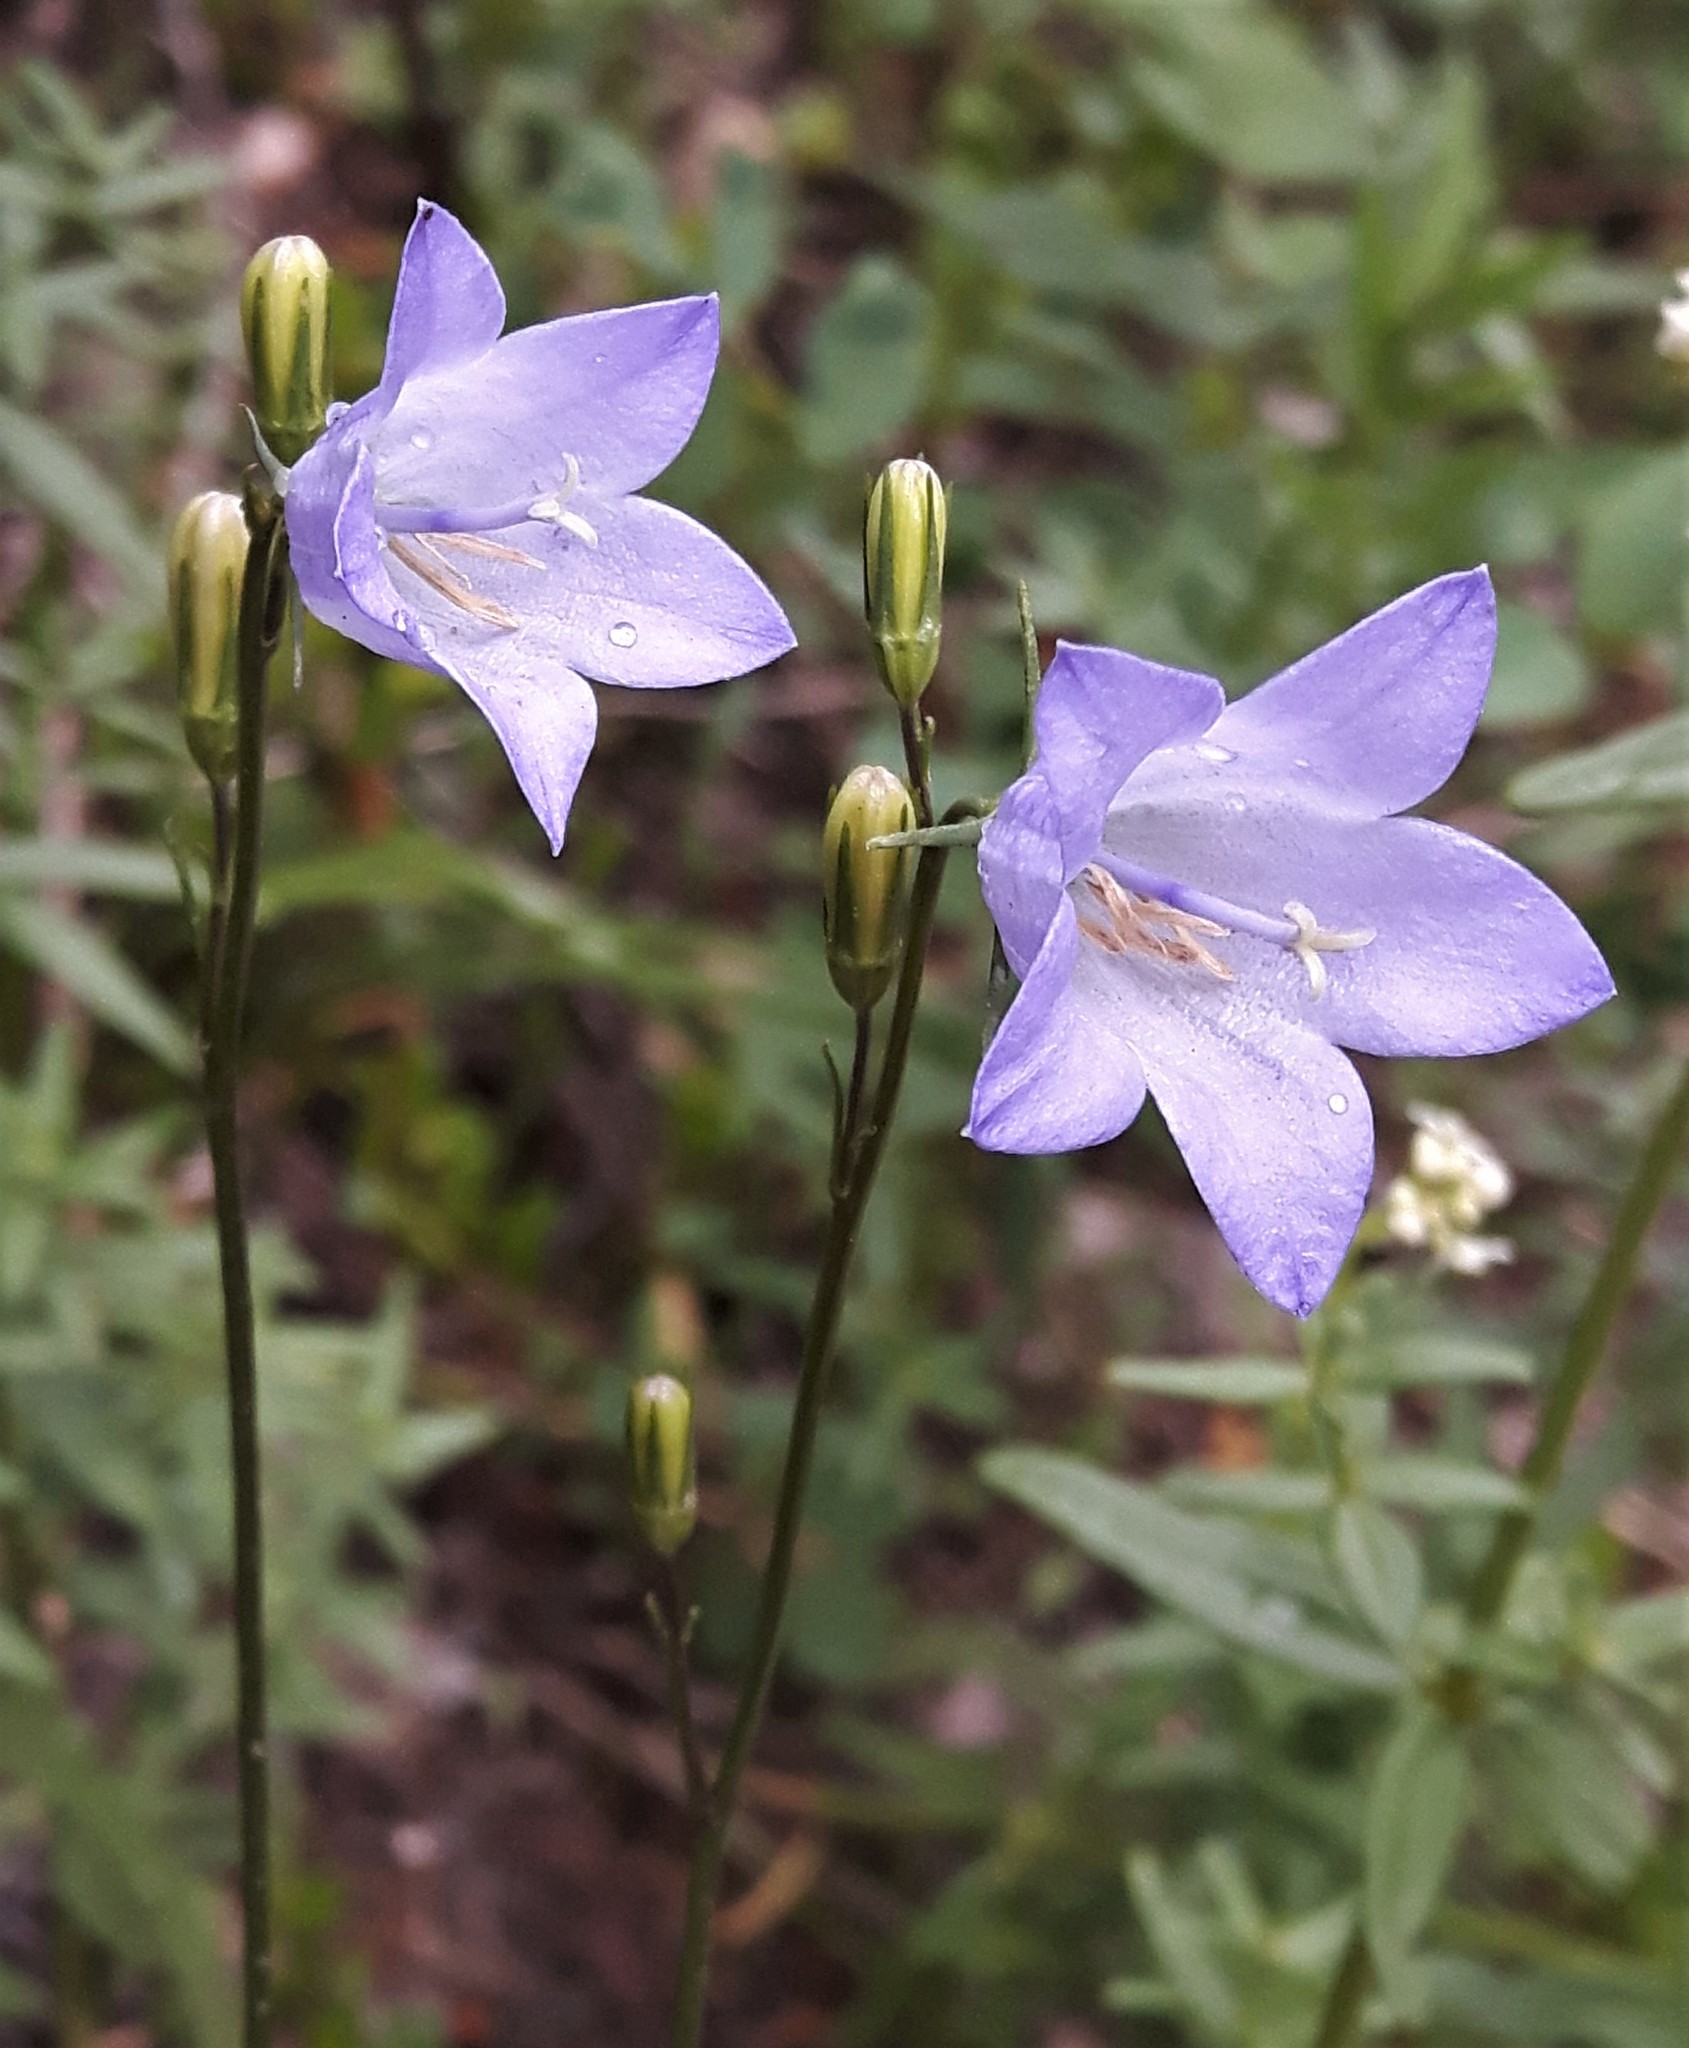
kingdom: Plantae
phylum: Tracheophyta
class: Magnoliopsida
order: Asterales
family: Campanulaceae
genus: Campanula
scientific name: Campanula alaskana
